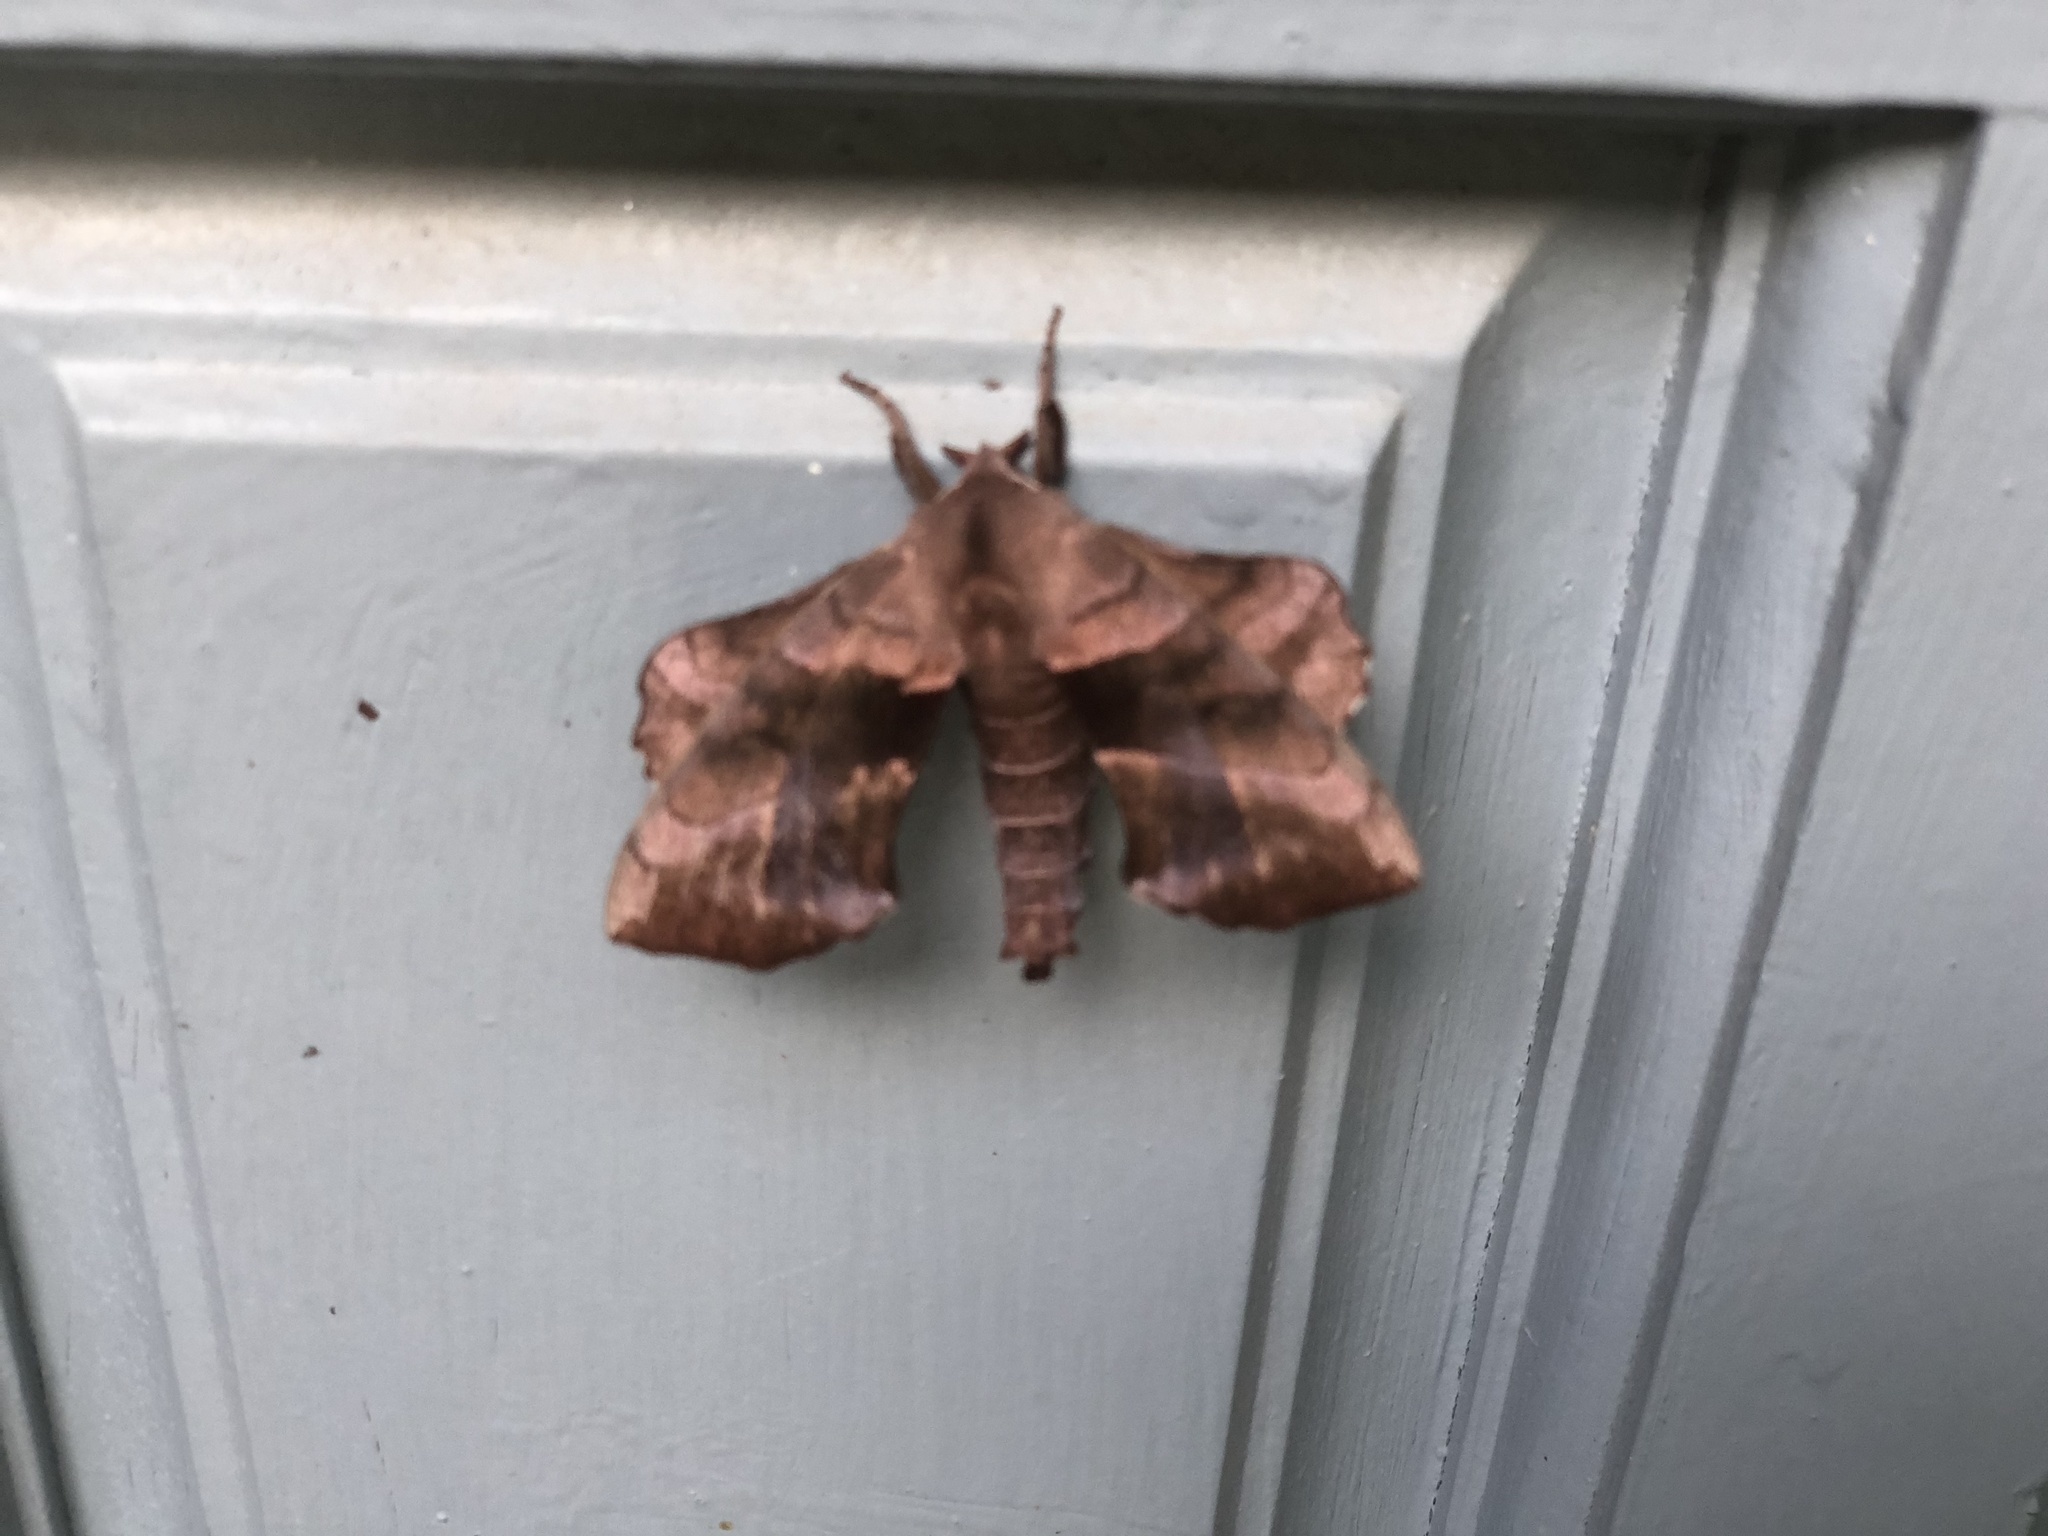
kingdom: Animalia
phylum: Arthropoda
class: Insecta
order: Lepidoptera
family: Sphingidae
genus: Amorpha
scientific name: Amorpha juglandis
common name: Walnut sphinx
